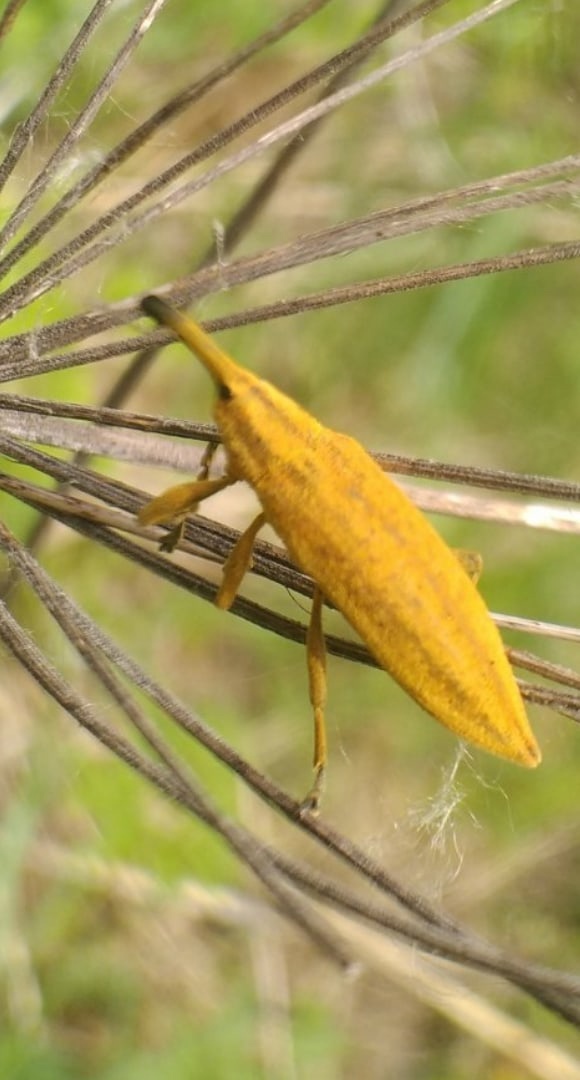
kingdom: Animalia
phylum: Arthropoda
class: Insecta
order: Coleoptera
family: Curculionidae
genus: Lixus
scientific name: Lixus iridis
